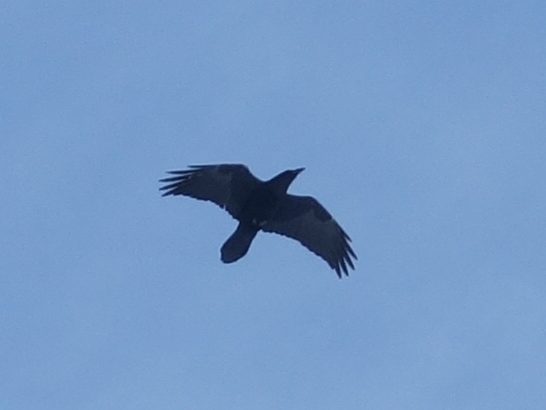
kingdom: Animalia
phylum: Chordata
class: Aves
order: Passeriformes
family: Corvidae
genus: Corvus
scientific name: Corvus corax
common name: Common raven
